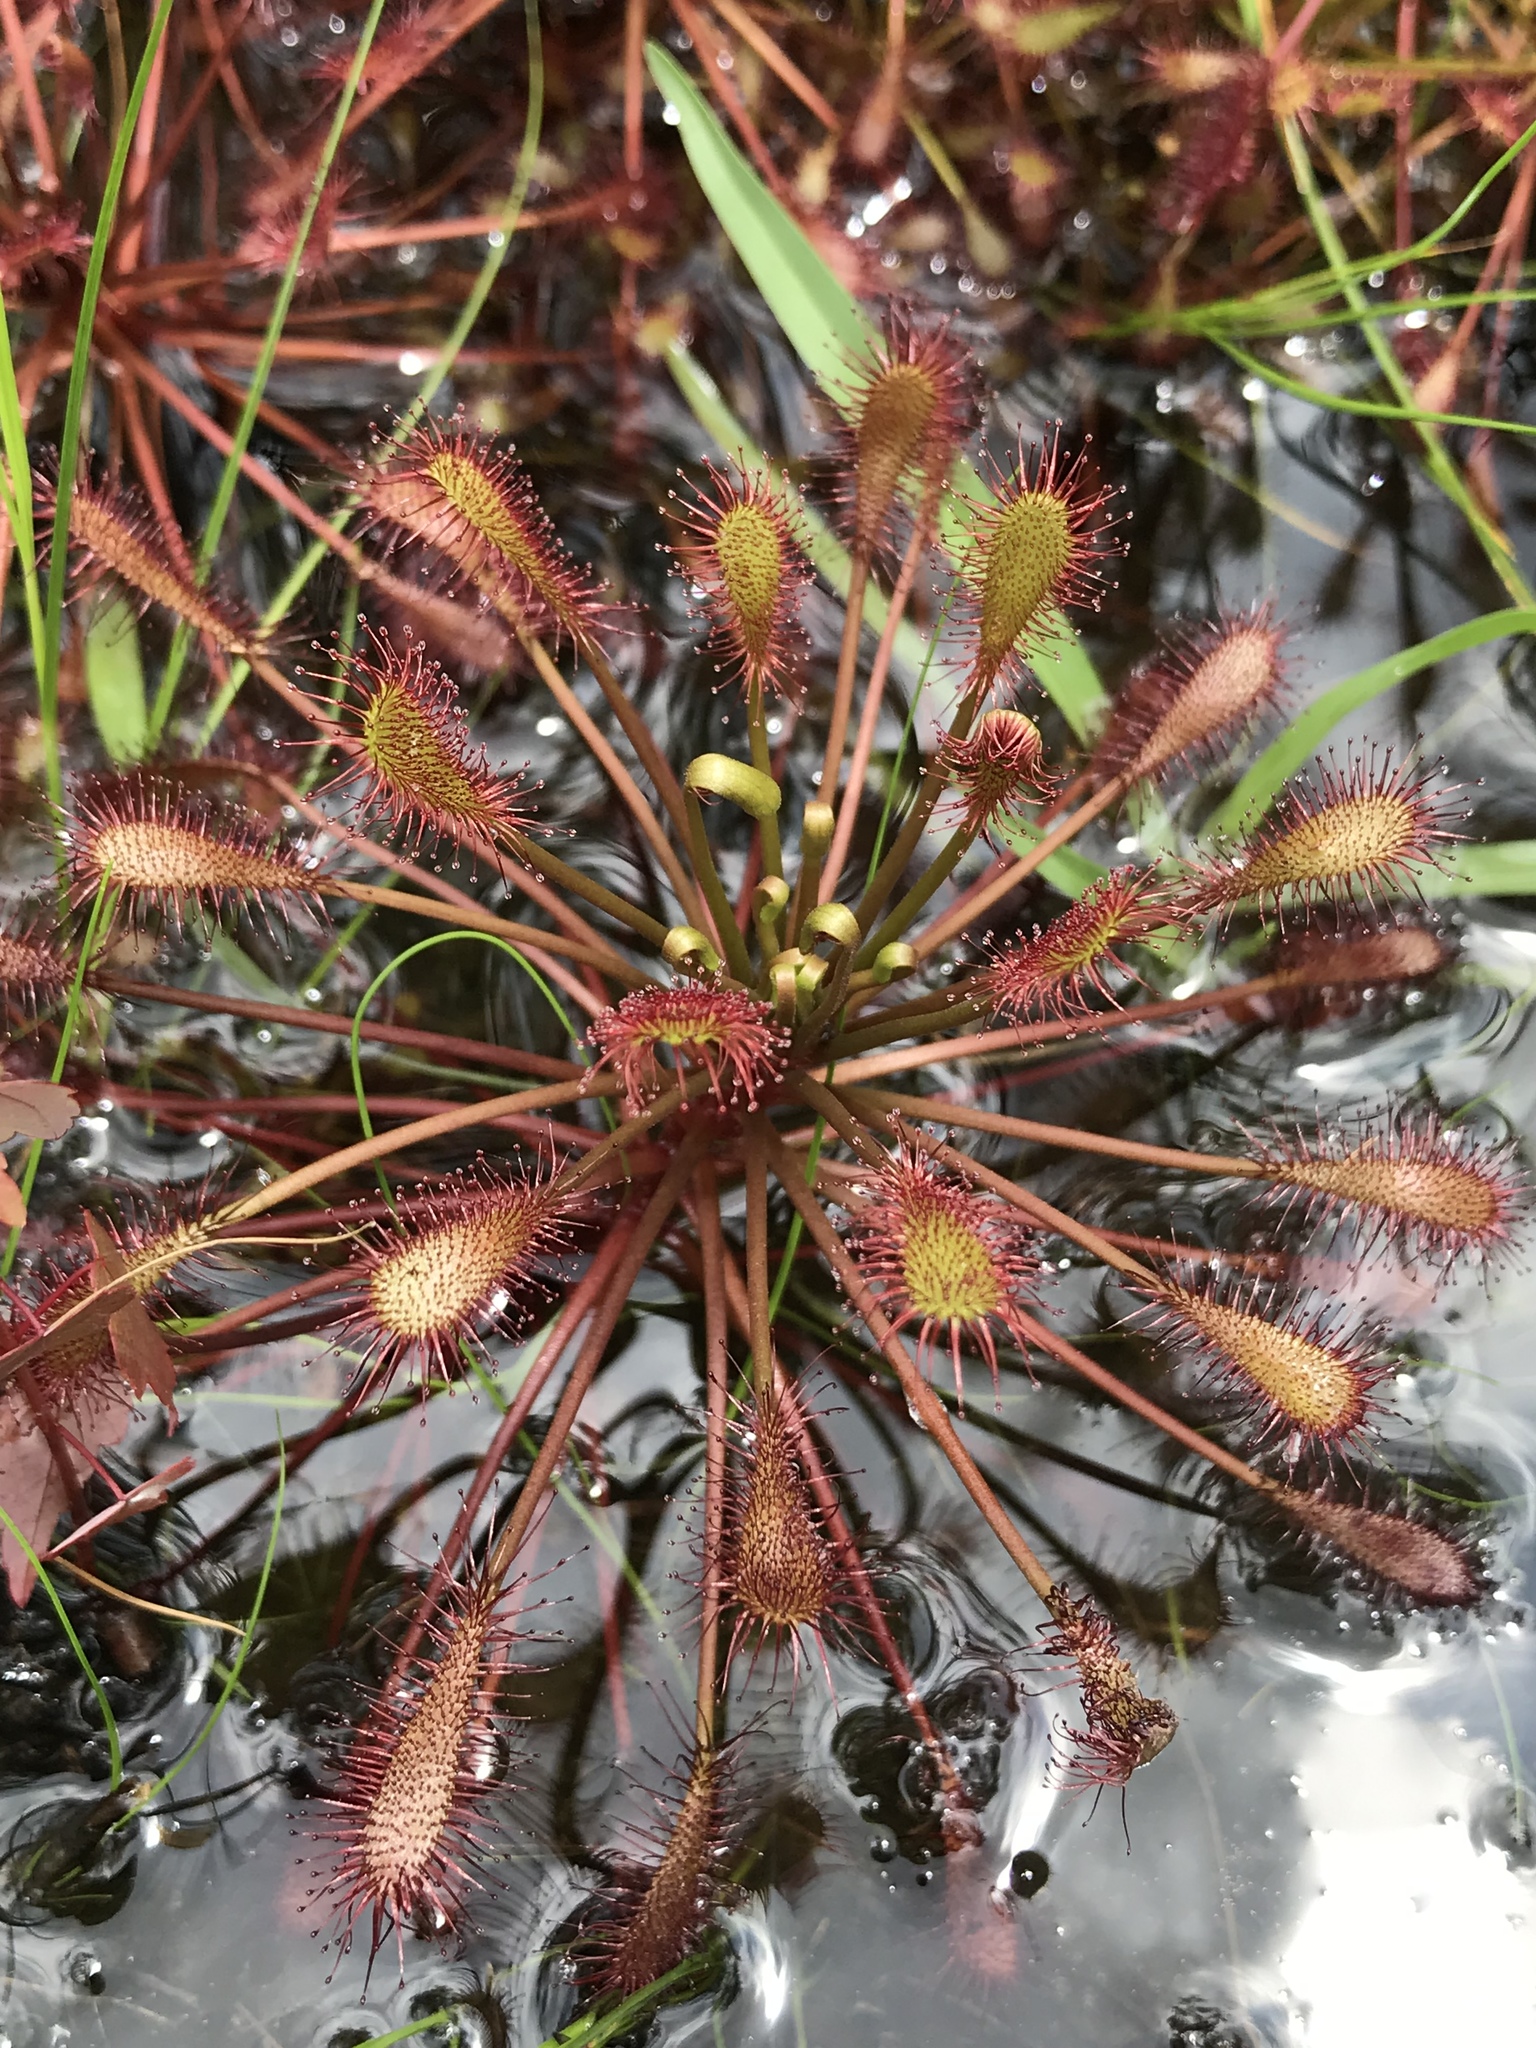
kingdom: Plantae
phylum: Tracheophyta
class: Magnoliopsida
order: Caryophyllales
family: Droseraceae
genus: Drosera
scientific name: Drosera intermedia
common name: Oblong-leaved sundew
